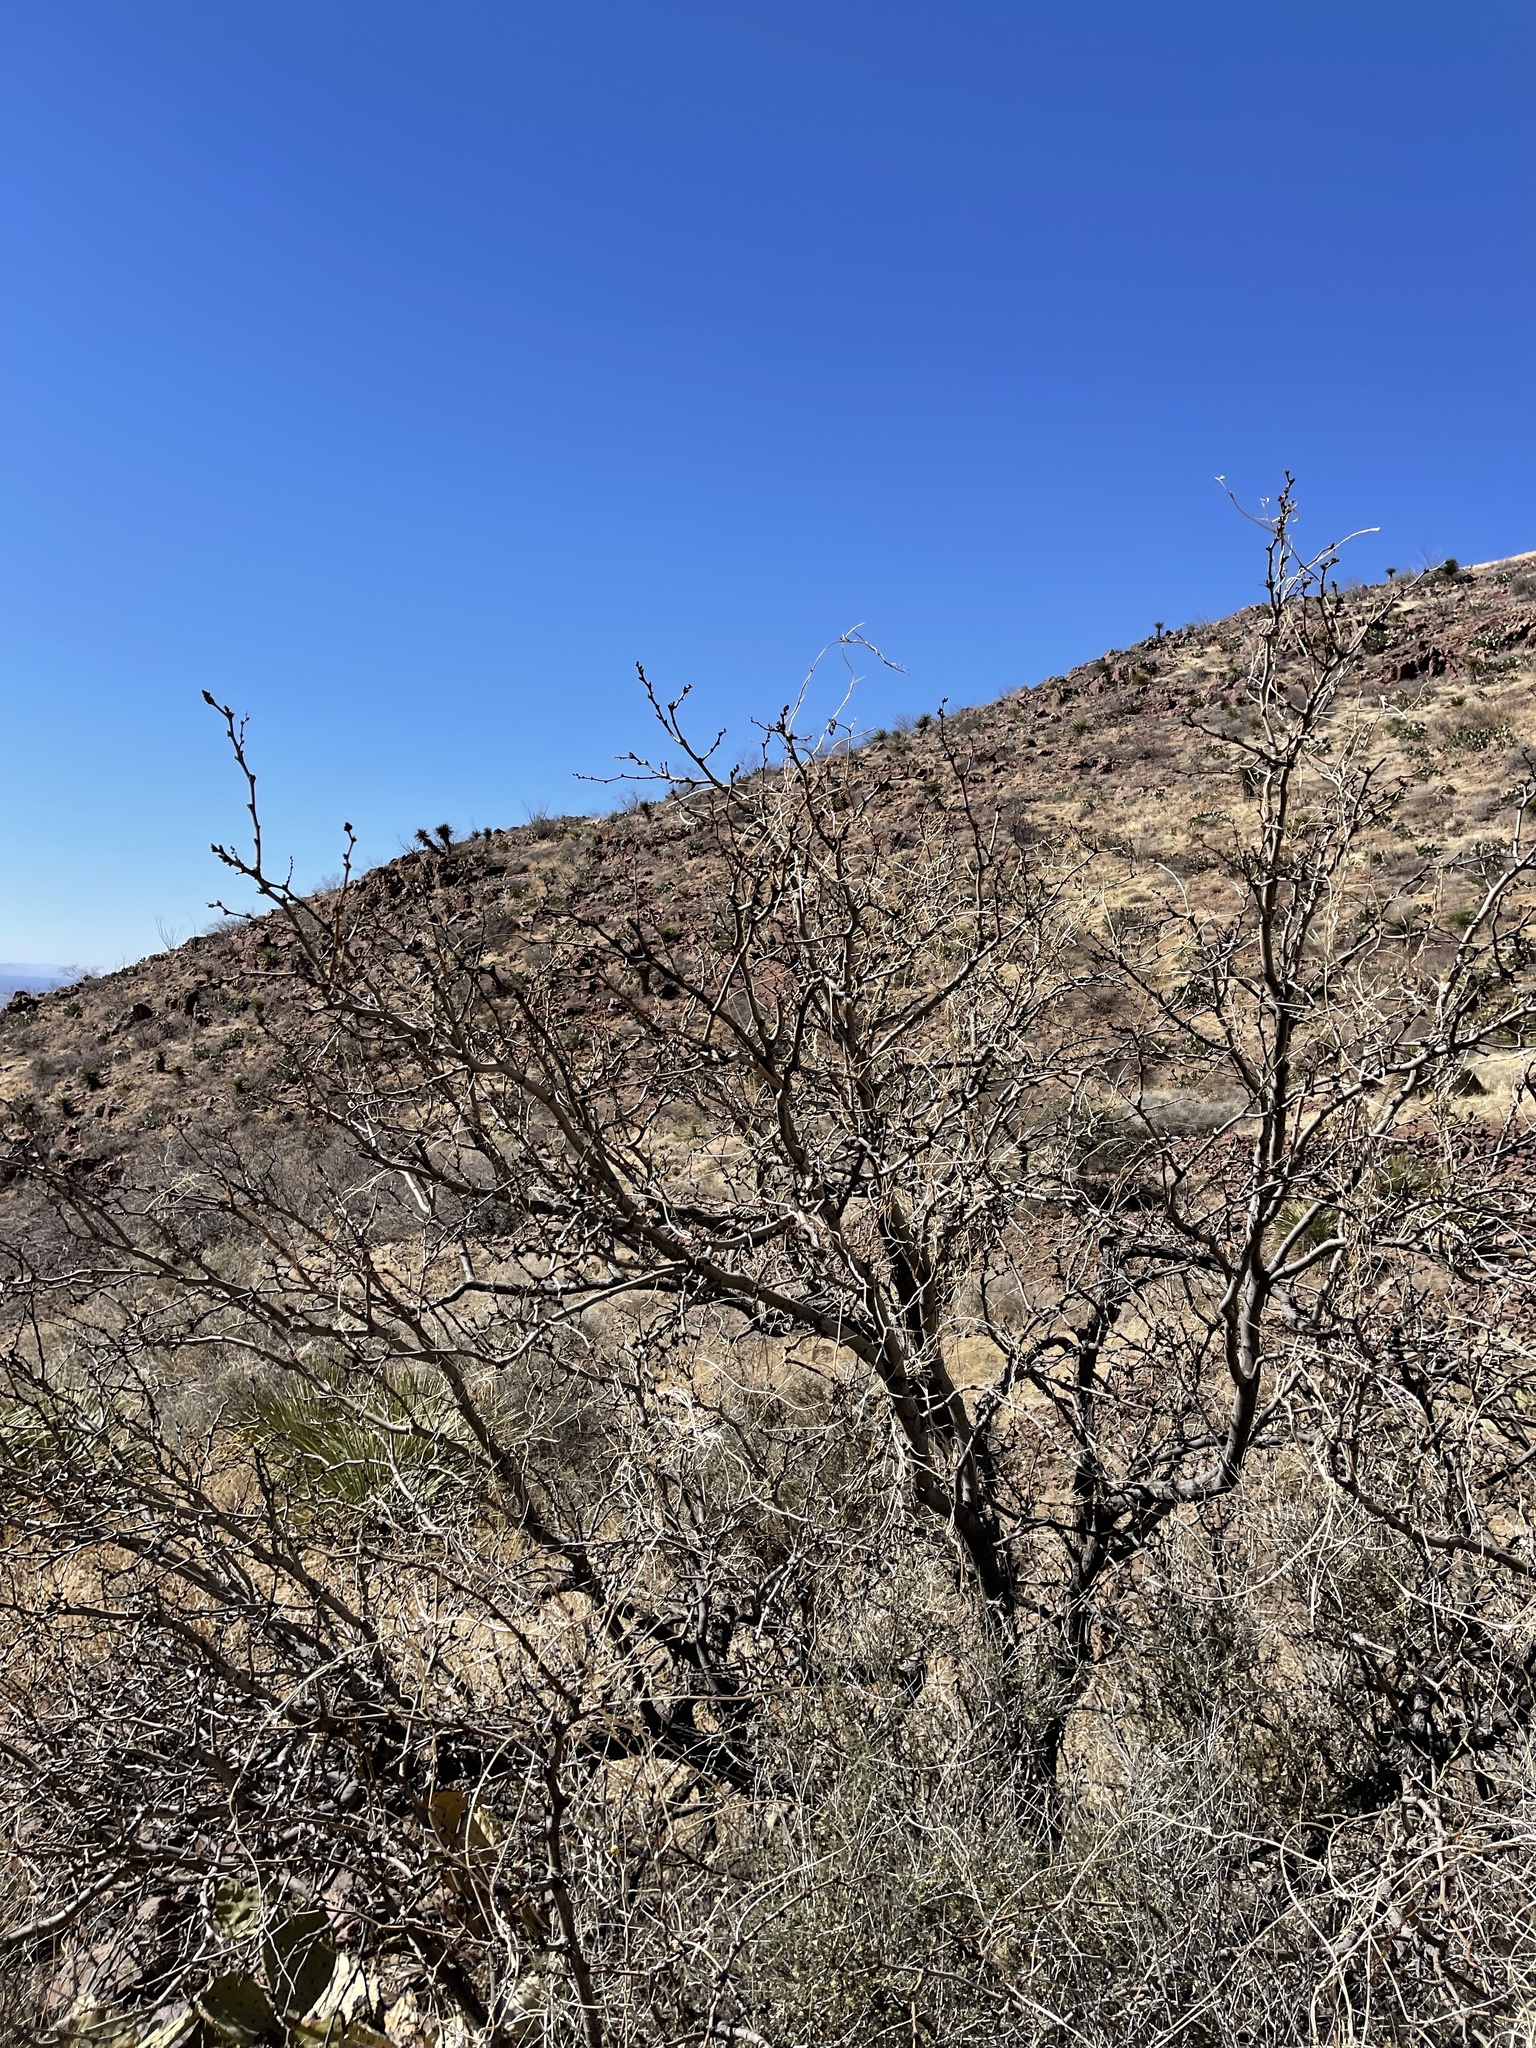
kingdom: Plantae
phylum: Tracheophyta
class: Magnoliopsida
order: Fabales
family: Fabaceae
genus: Prosopis
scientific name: Prosopis glandulosa
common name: Honey mesquite
